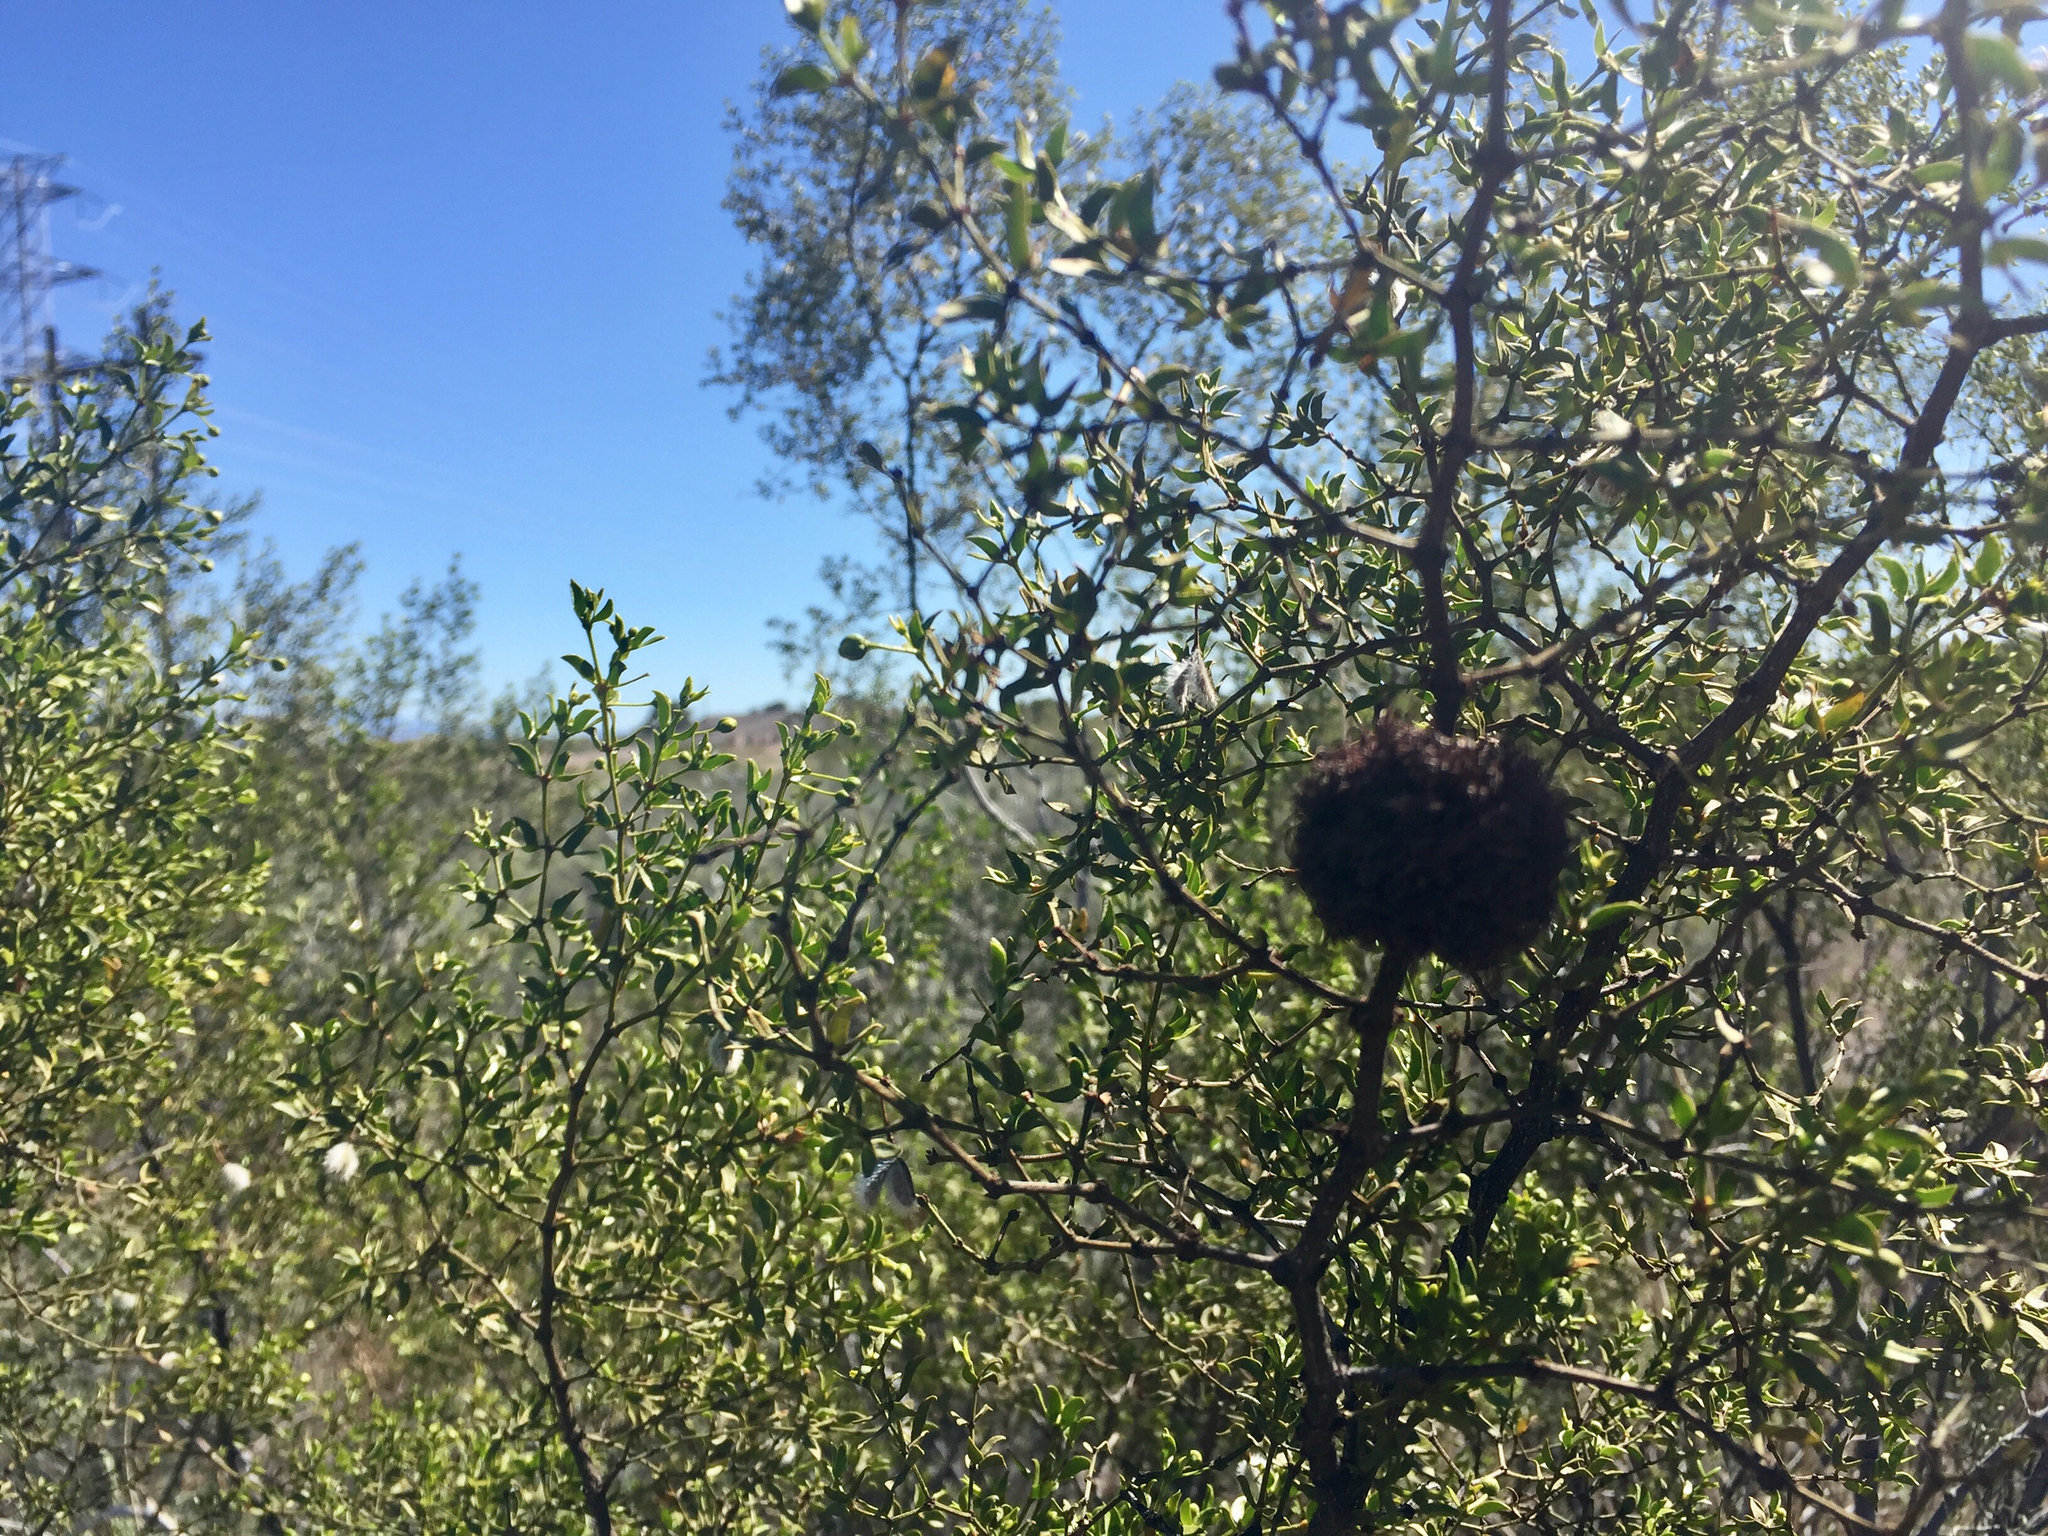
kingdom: Animalia
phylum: Arthropoda
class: Insecta
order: Diptera
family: Cecidomyiidae
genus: Asphondylia
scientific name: Asphondylia auripila
